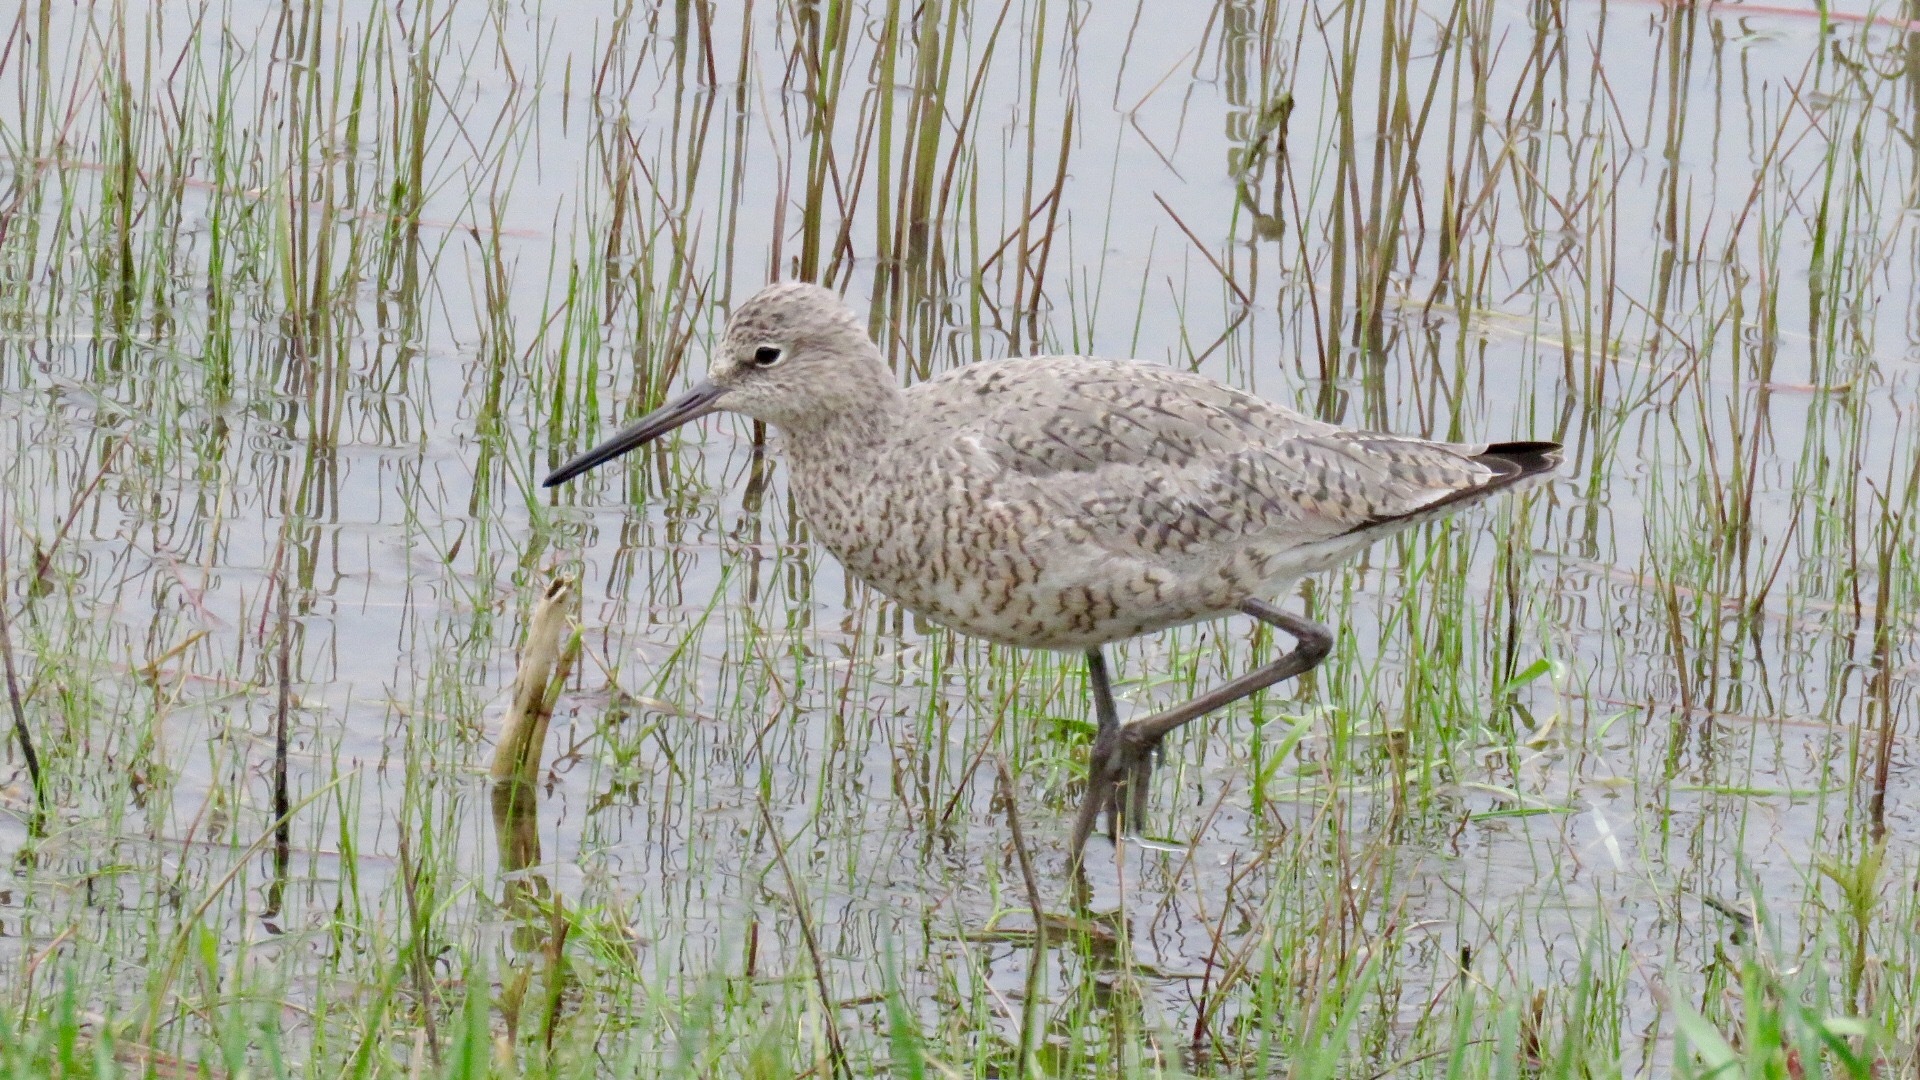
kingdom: Animalia
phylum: Chordata
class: Aves
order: Charadriiformes
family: Scolopacidae
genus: Tringa
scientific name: Tringa semipalmata
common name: Willet
